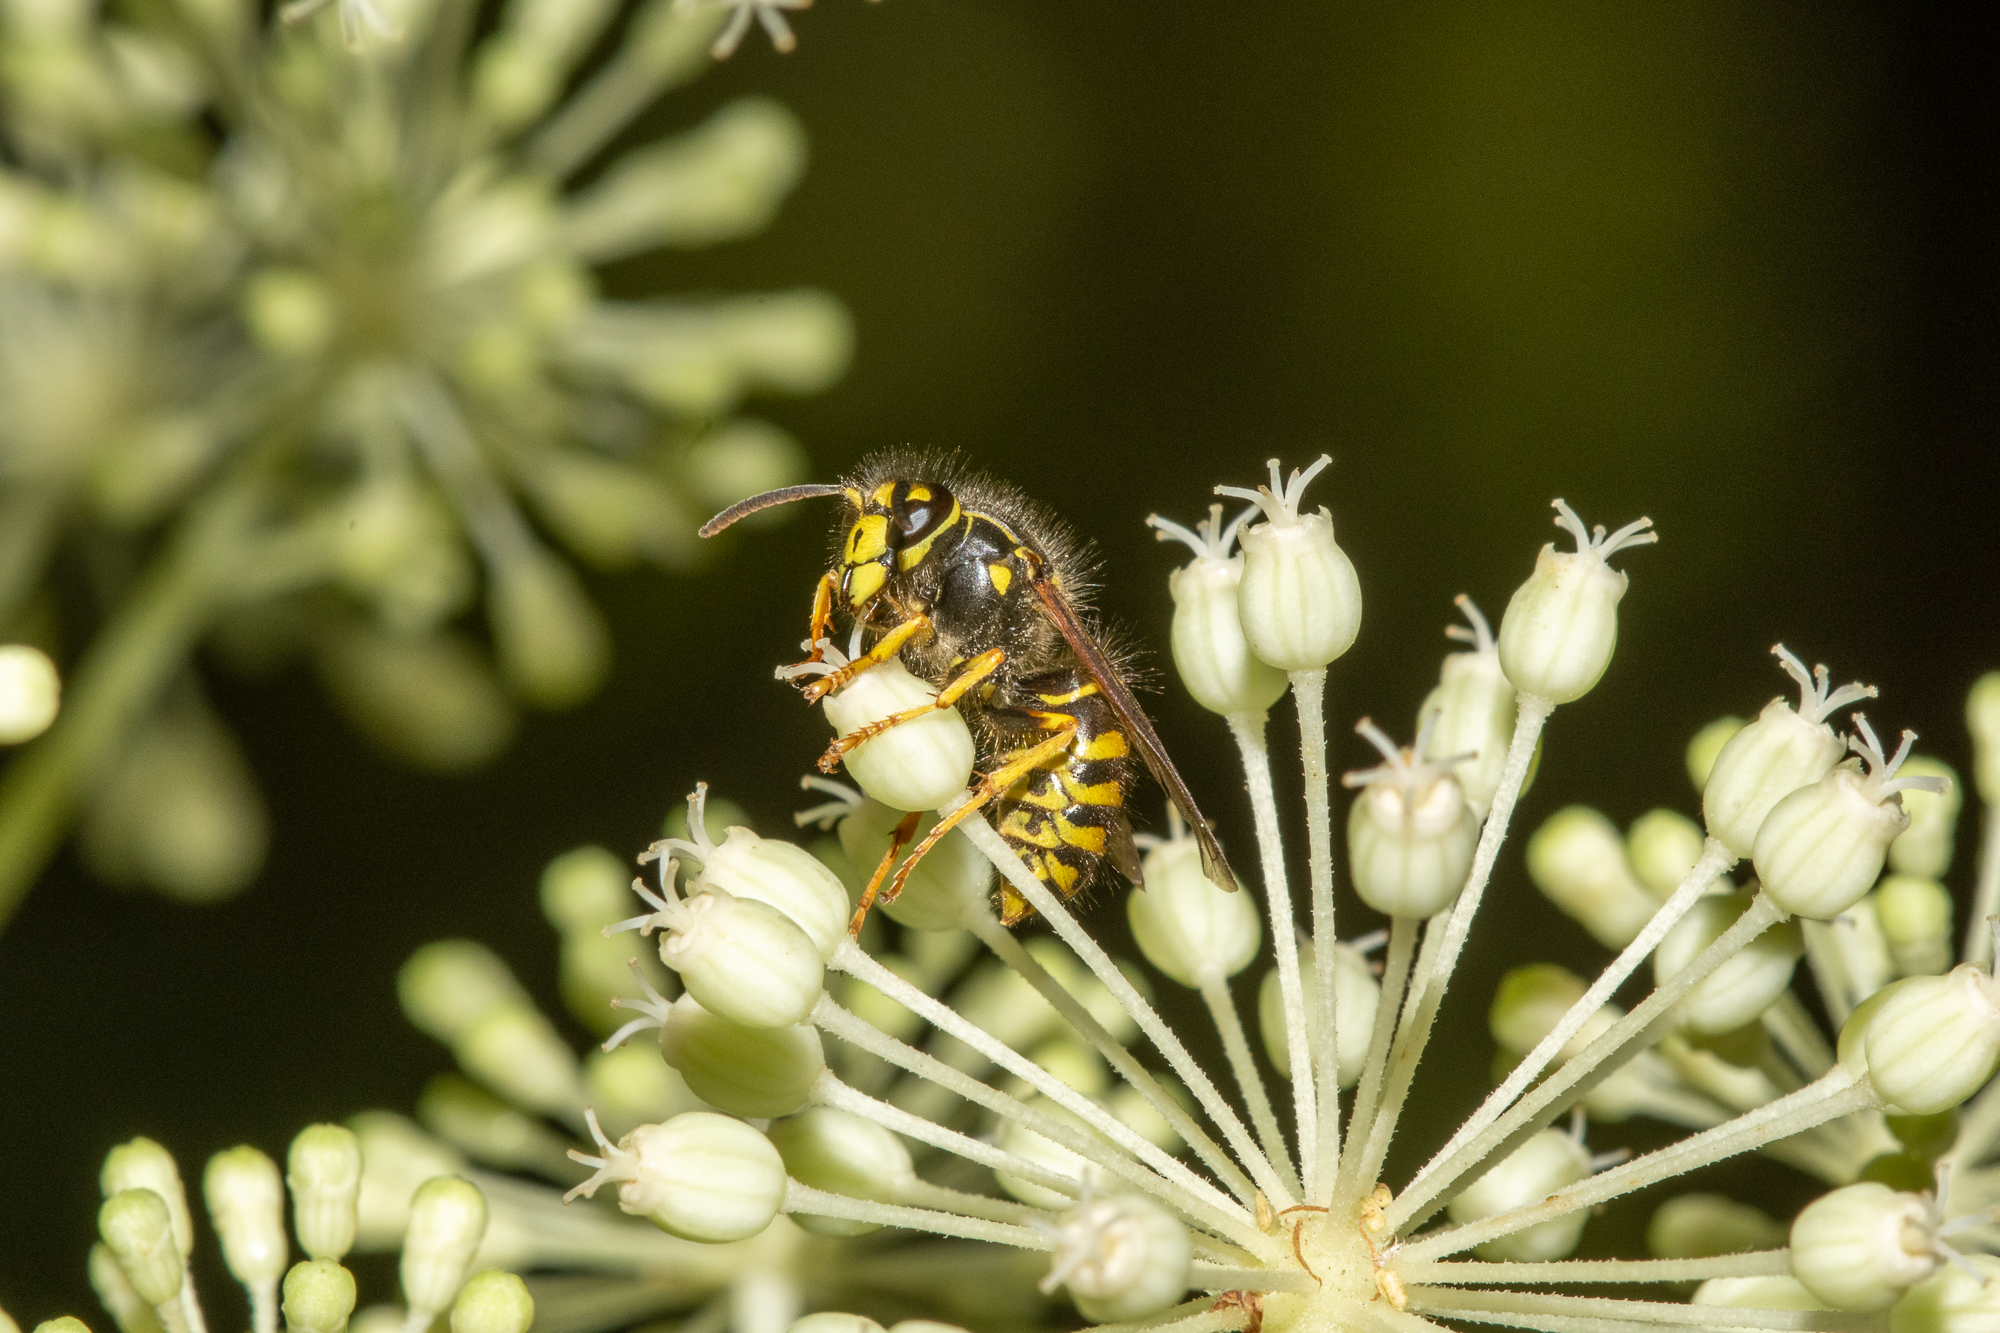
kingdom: Animalia
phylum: Arthropoda
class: Insecta
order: Hymenoptera
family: Vespidae
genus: Dolichovespula
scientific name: Dolichovespula arenaria
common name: Aerial yellowjacket
